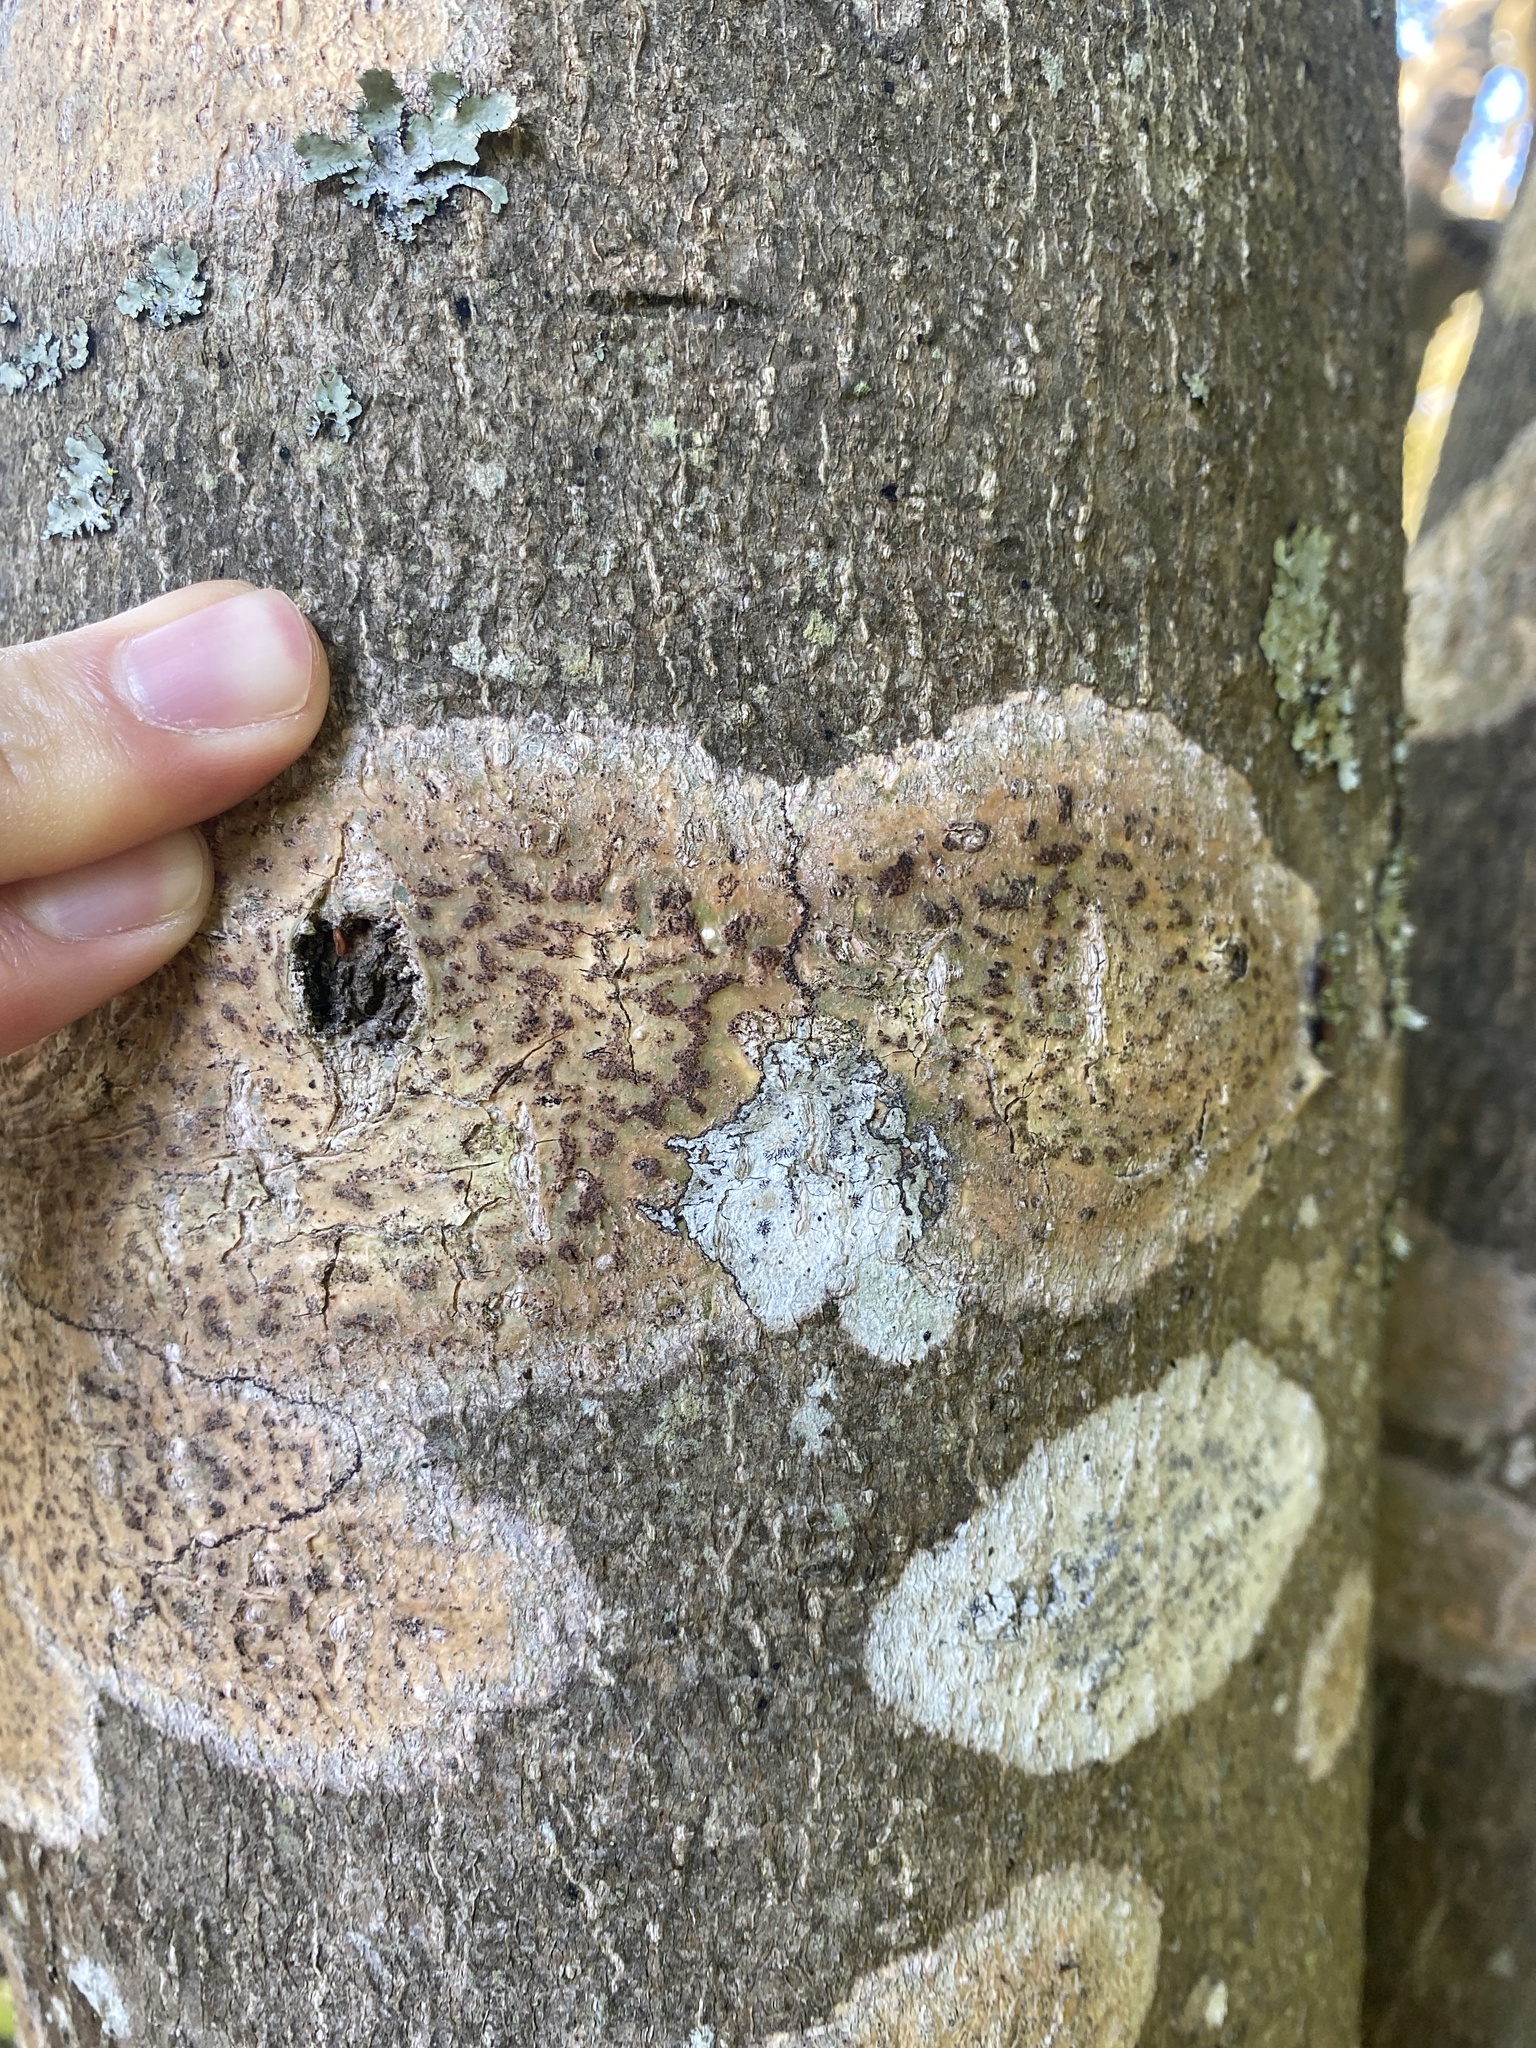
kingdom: Fungi
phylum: Ascomycota
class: Dothideomycetes
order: Trypetheliales
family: Trypetheliaceae
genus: Viridothelium
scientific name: Viridothelium virens
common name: Speckled blister lichen
